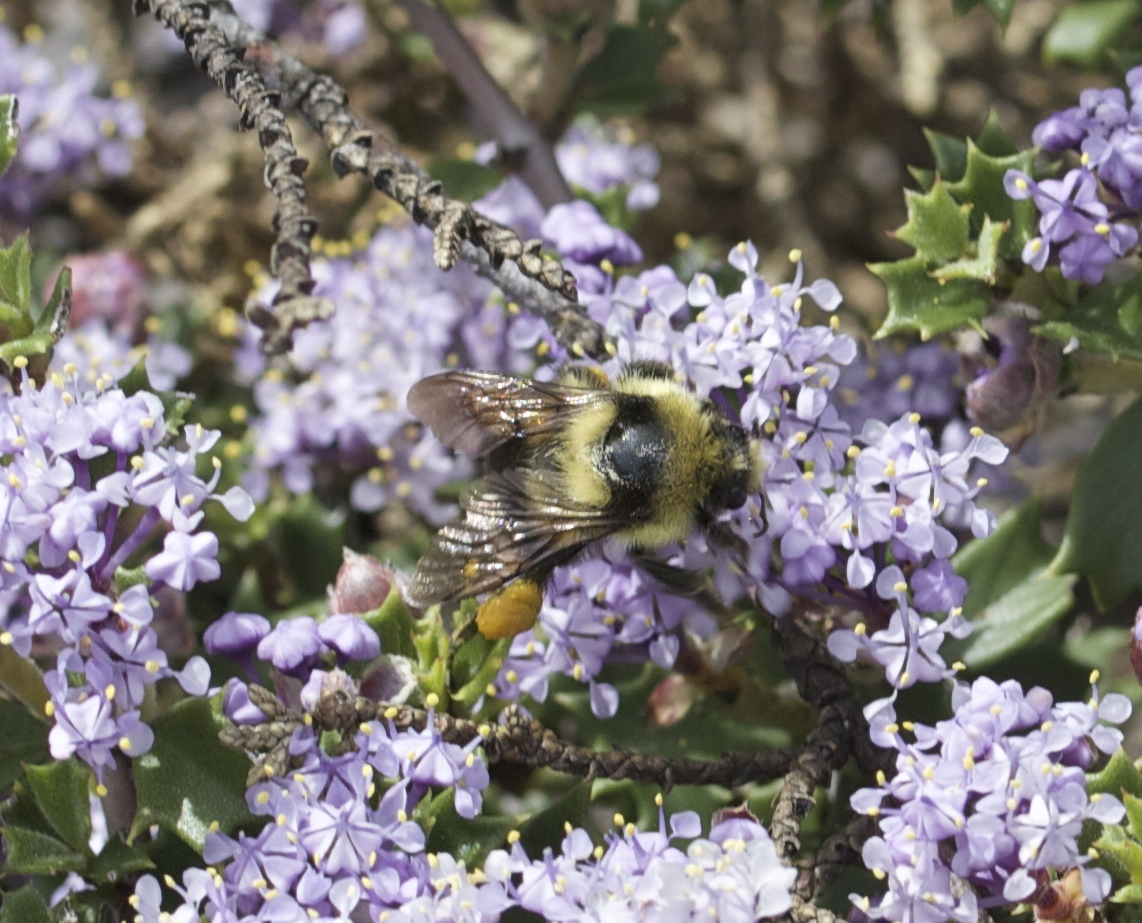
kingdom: Animalia
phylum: Arthropoda
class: Insecta
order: Hymenoptera
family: Apidae
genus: Bombus
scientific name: Bombus melanopygus
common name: Black tail bumble bee
